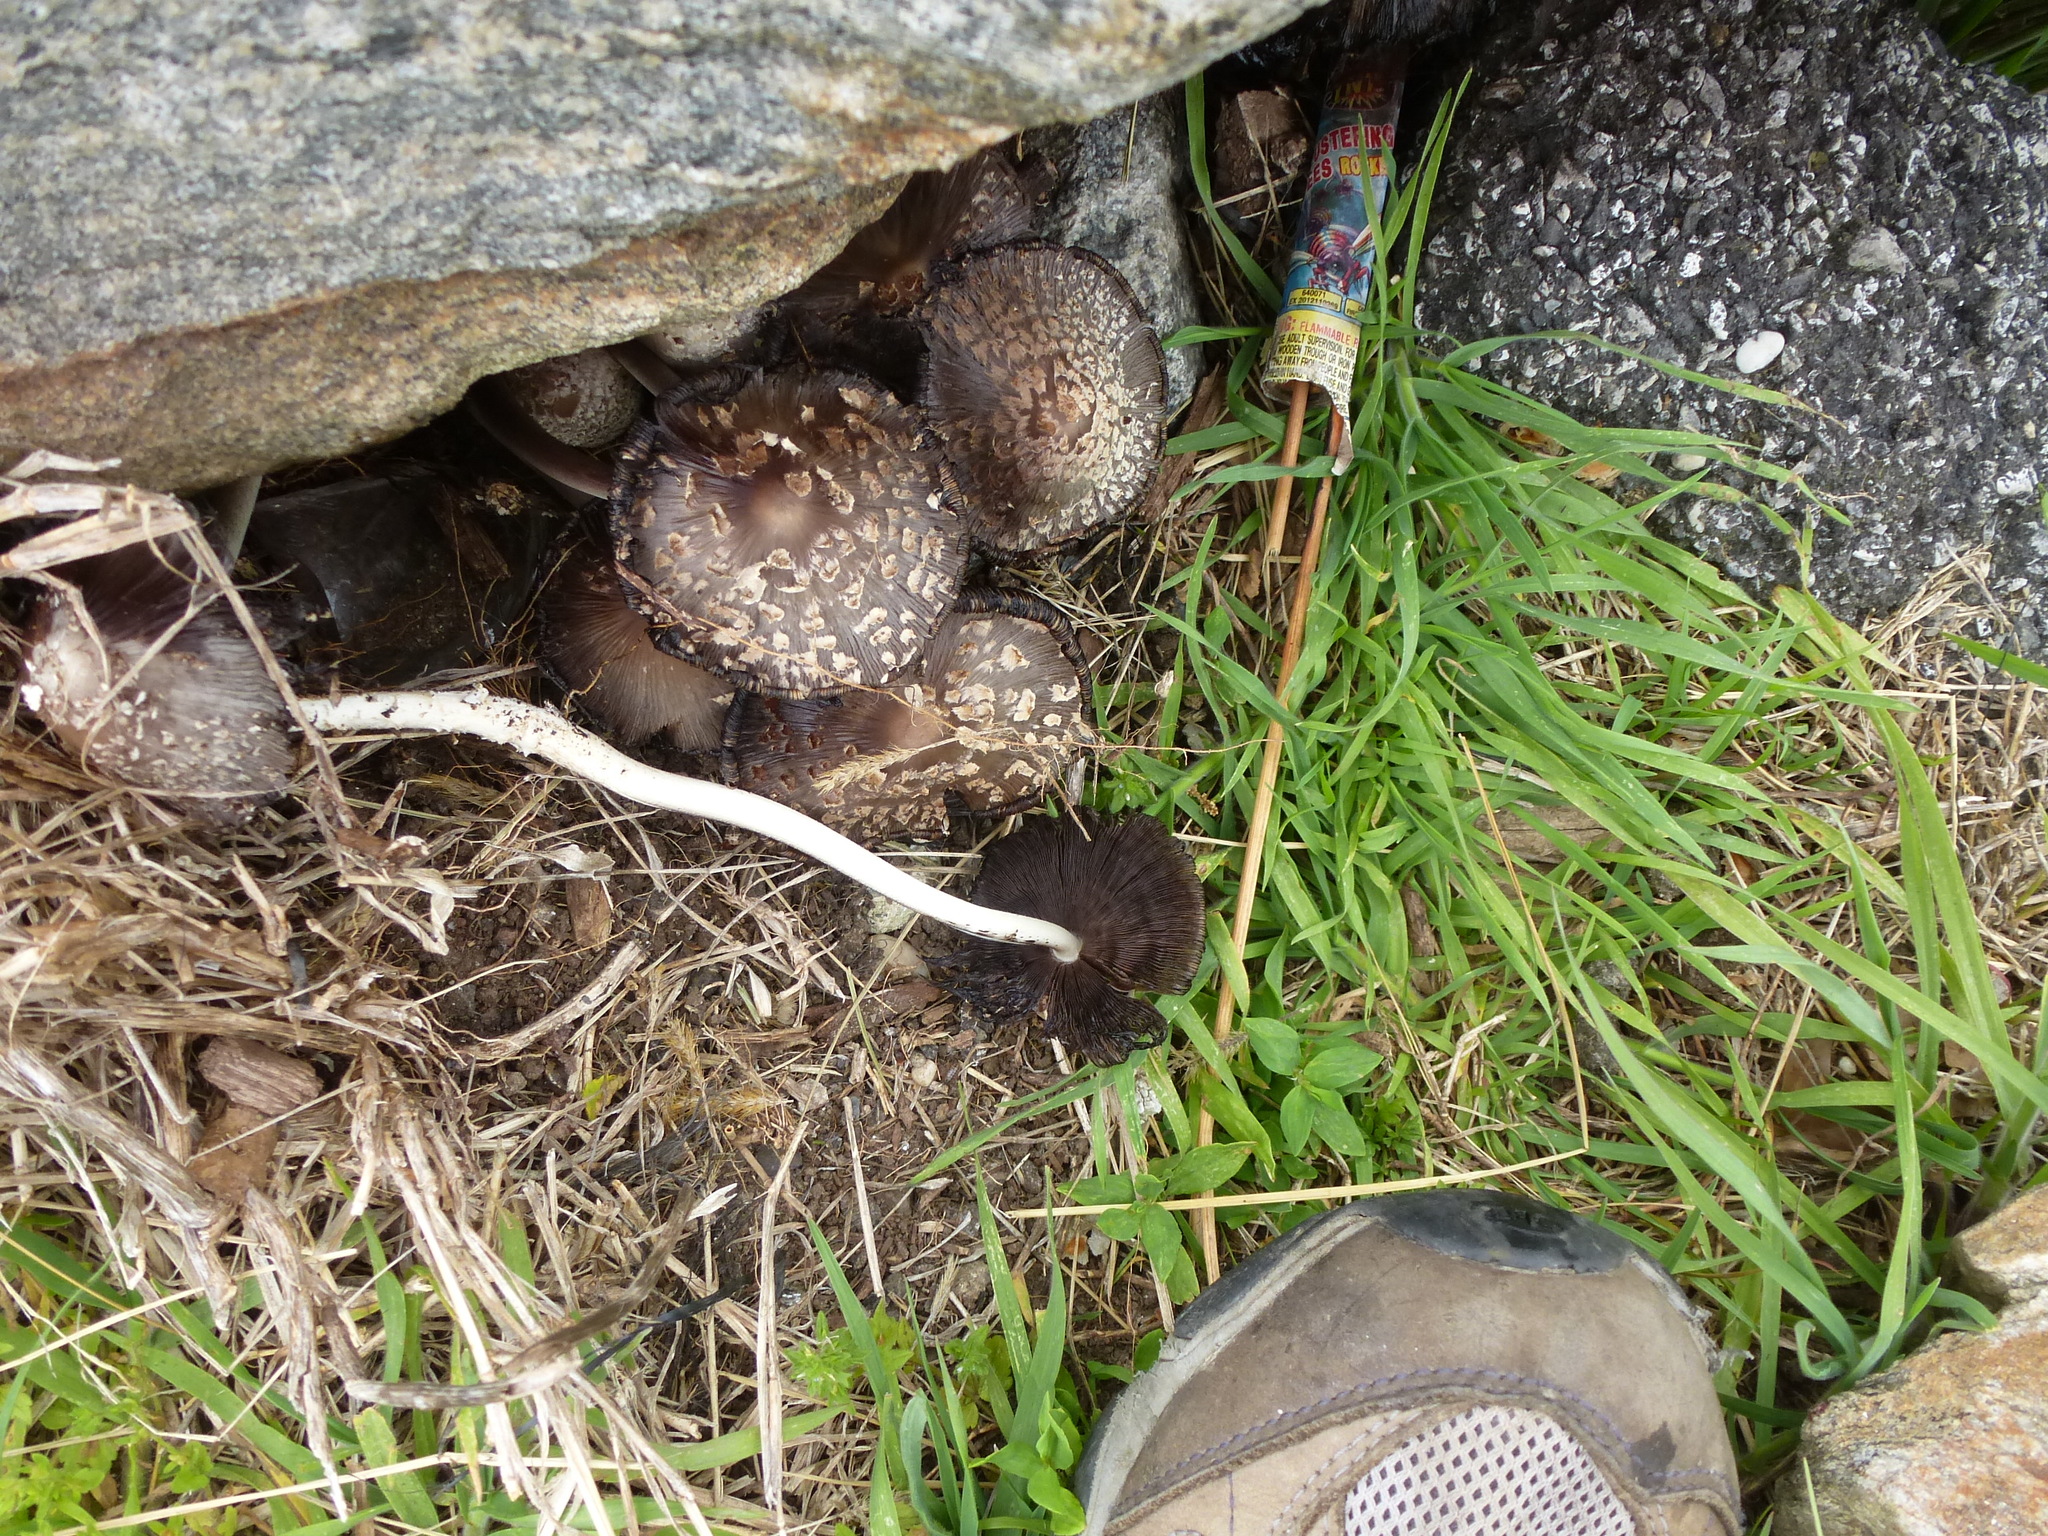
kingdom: Fungi
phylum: Basidiomycota
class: Agaricomycetes
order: Agaricales
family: Psathyrellaceae
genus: Coprinopsis
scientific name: Coprinopsis variegata
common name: Scaly ink cap
